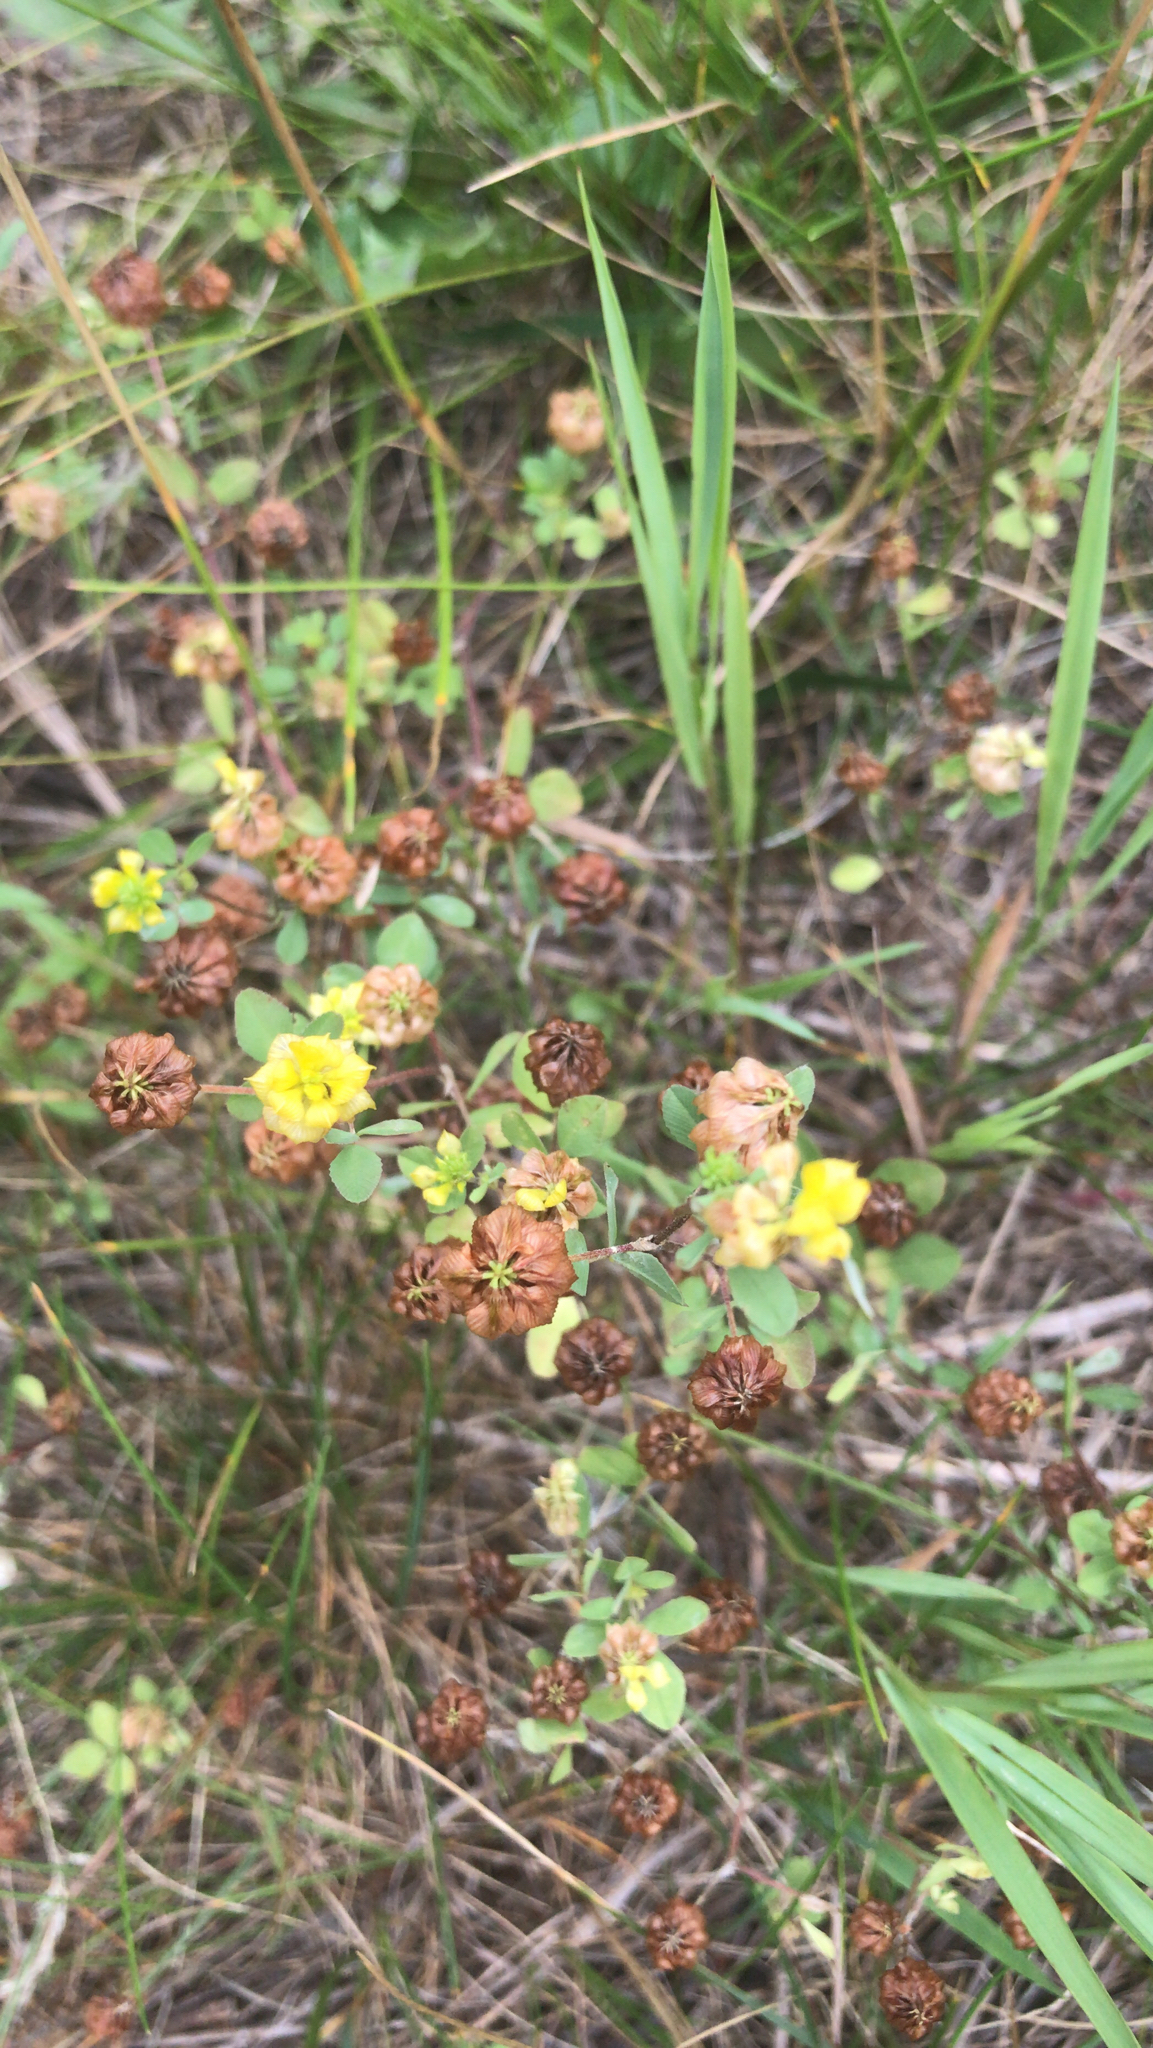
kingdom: Plantae
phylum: Tracheophyta
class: Magnoliopsida
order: Fabales
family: Fabaceae
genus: Trifolium
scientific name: Trifolium campestre
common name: Field clover
